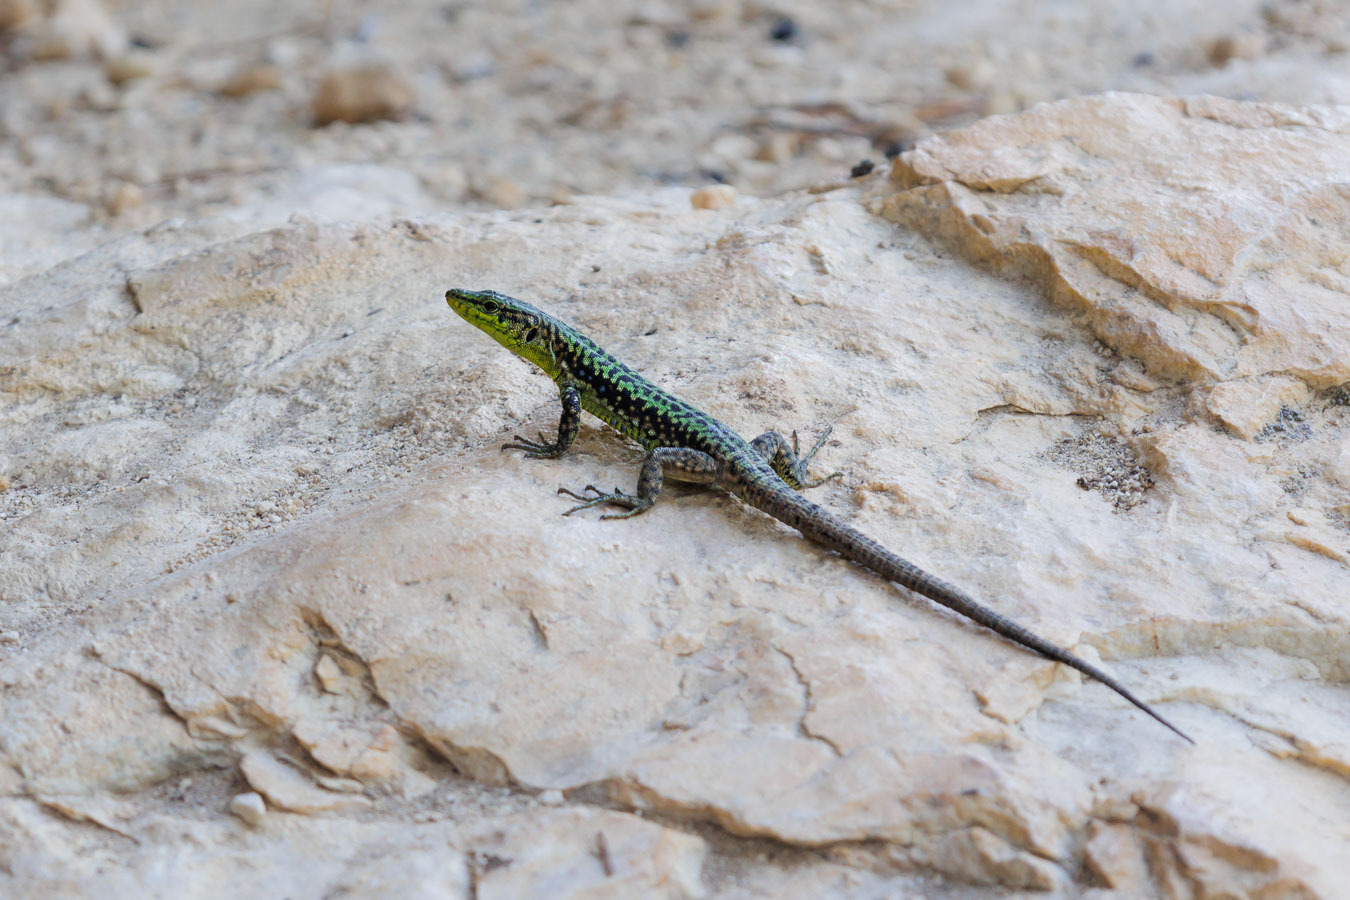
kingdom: Animalia
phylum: Chordata
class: Squamata
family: Lacertidae
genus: Darevskia
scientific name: Darevskia brauneri
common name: Brauner's rock lizard
